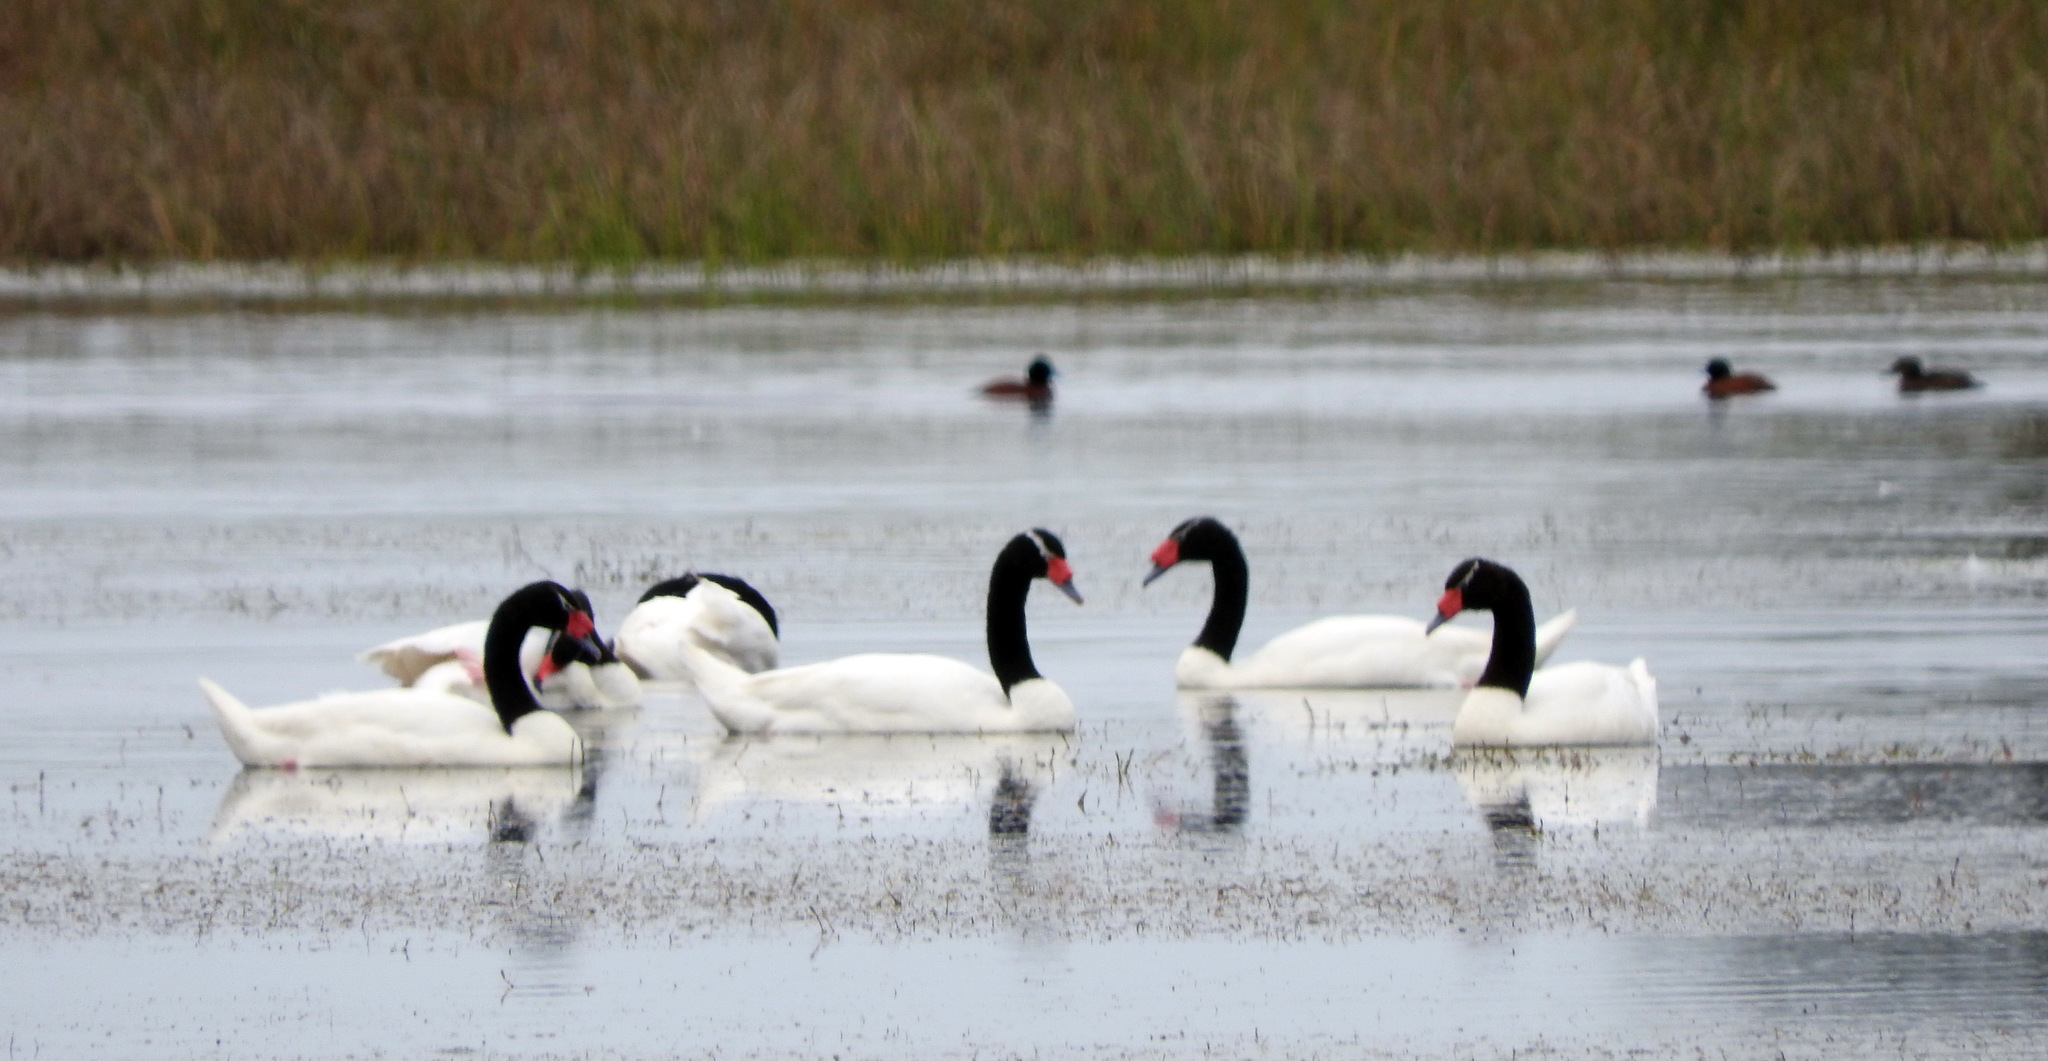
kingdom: Animalia
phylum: Chordata
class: Aves
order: Anseriformes
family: Anatidae
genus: Cygnus
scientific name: Cygnus melancoryphus
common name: Black-necked swan
